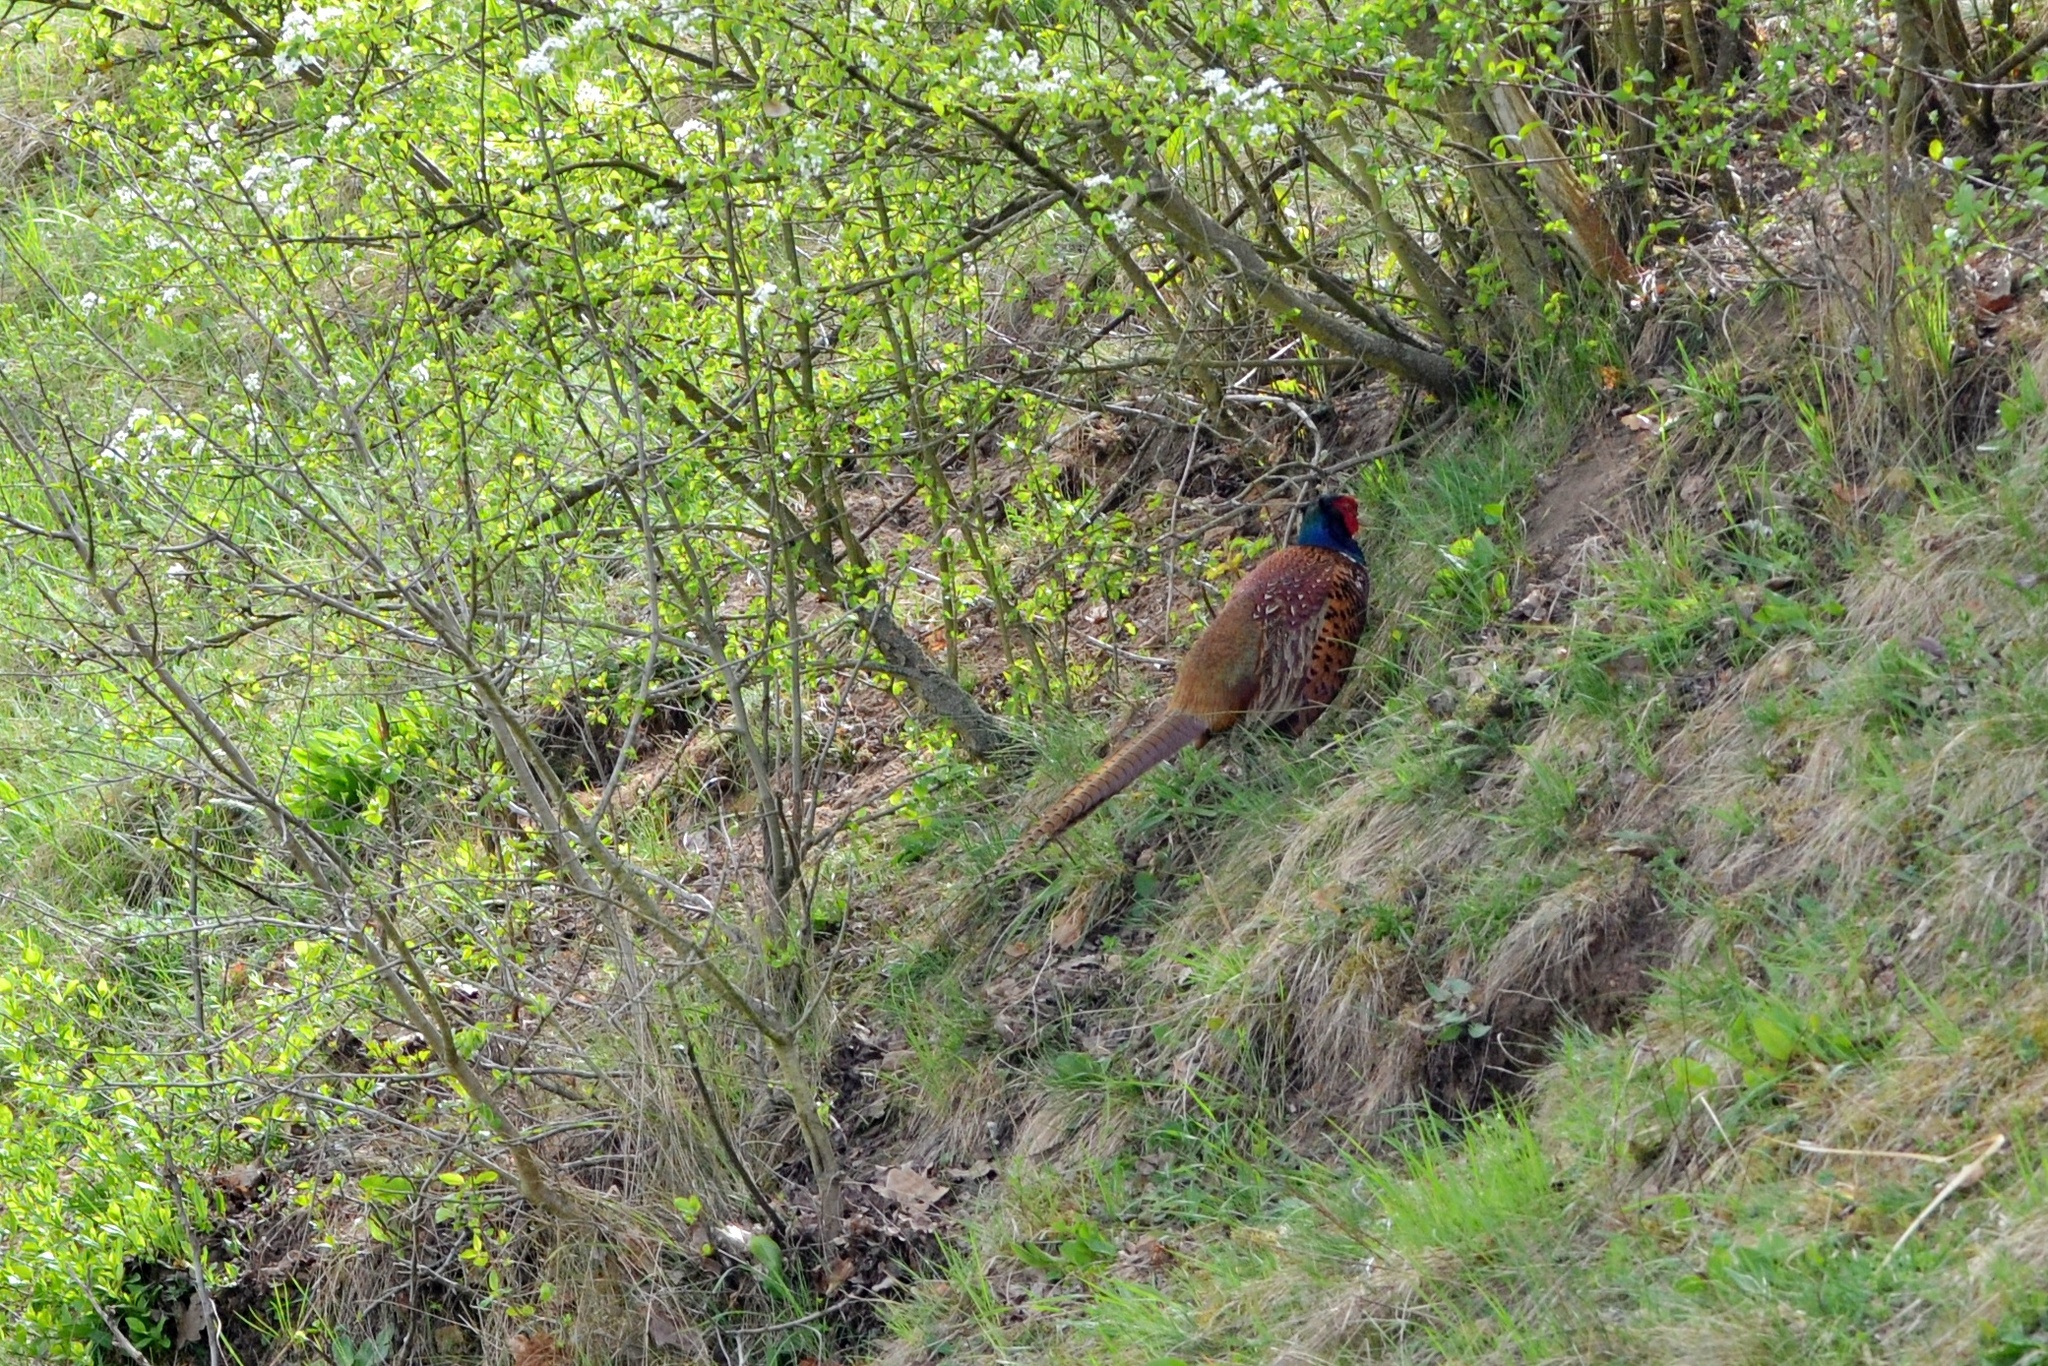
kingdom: Animalia
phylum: Chordata
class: Aves
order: Galliformes
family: Phasianidae
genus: Phasianus
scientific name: Phasianus colchicus
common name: Common pheasant
